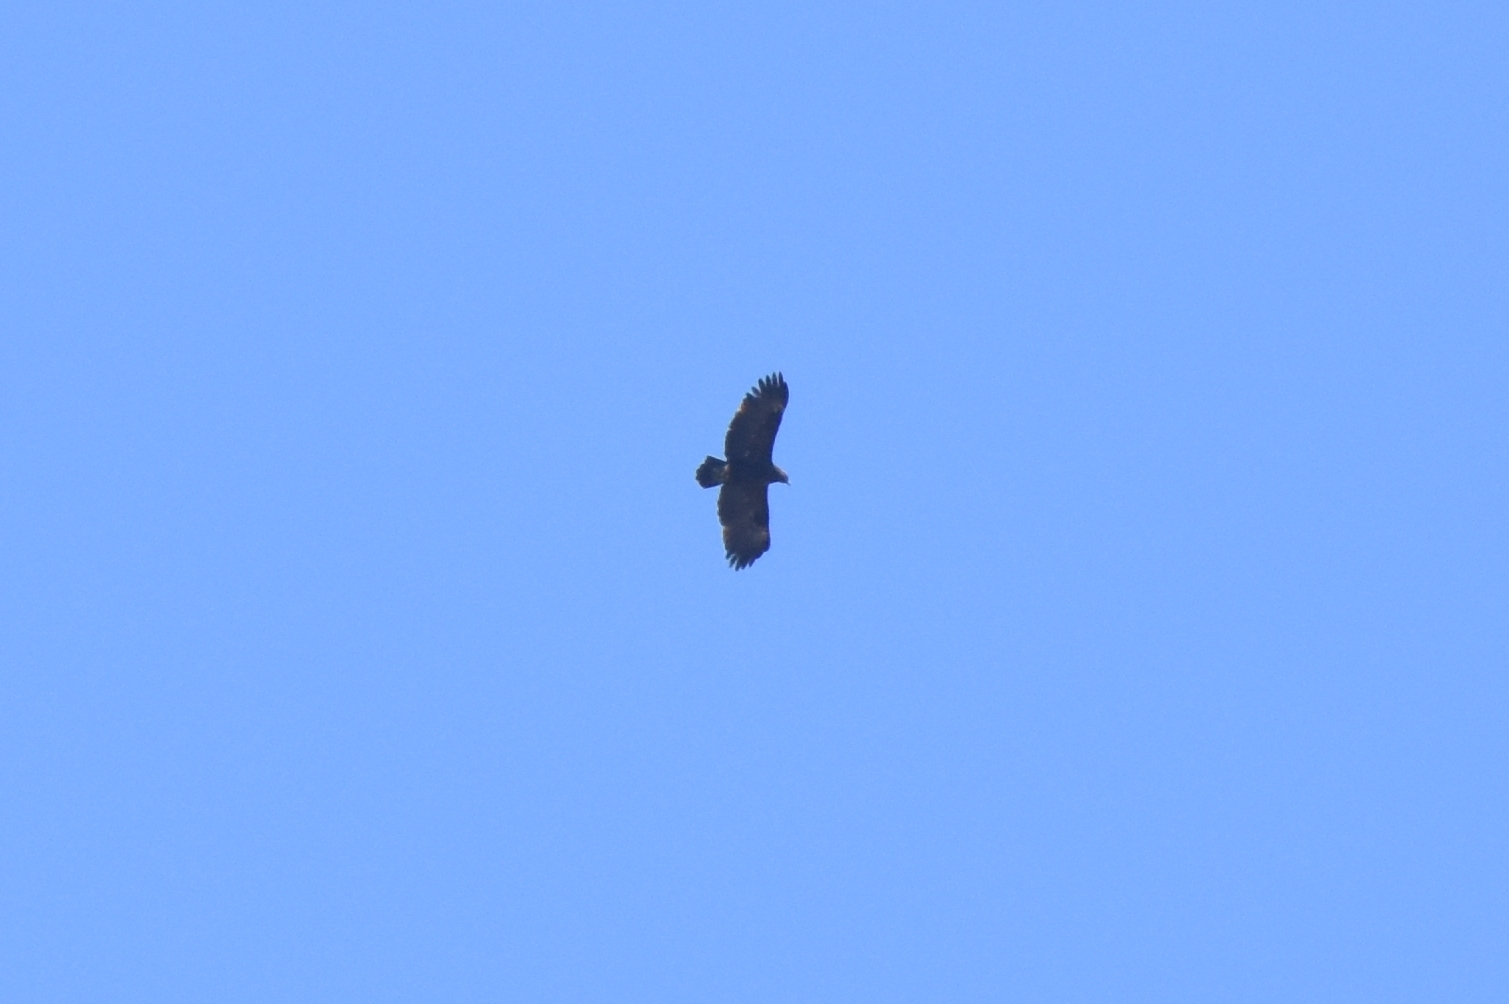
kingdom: Animalia
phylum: Chordata
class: Aves
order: Accipitriformes
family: Accipitridae
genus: Aquila
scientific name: Aquila clanga
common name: Greater spotted eagle
